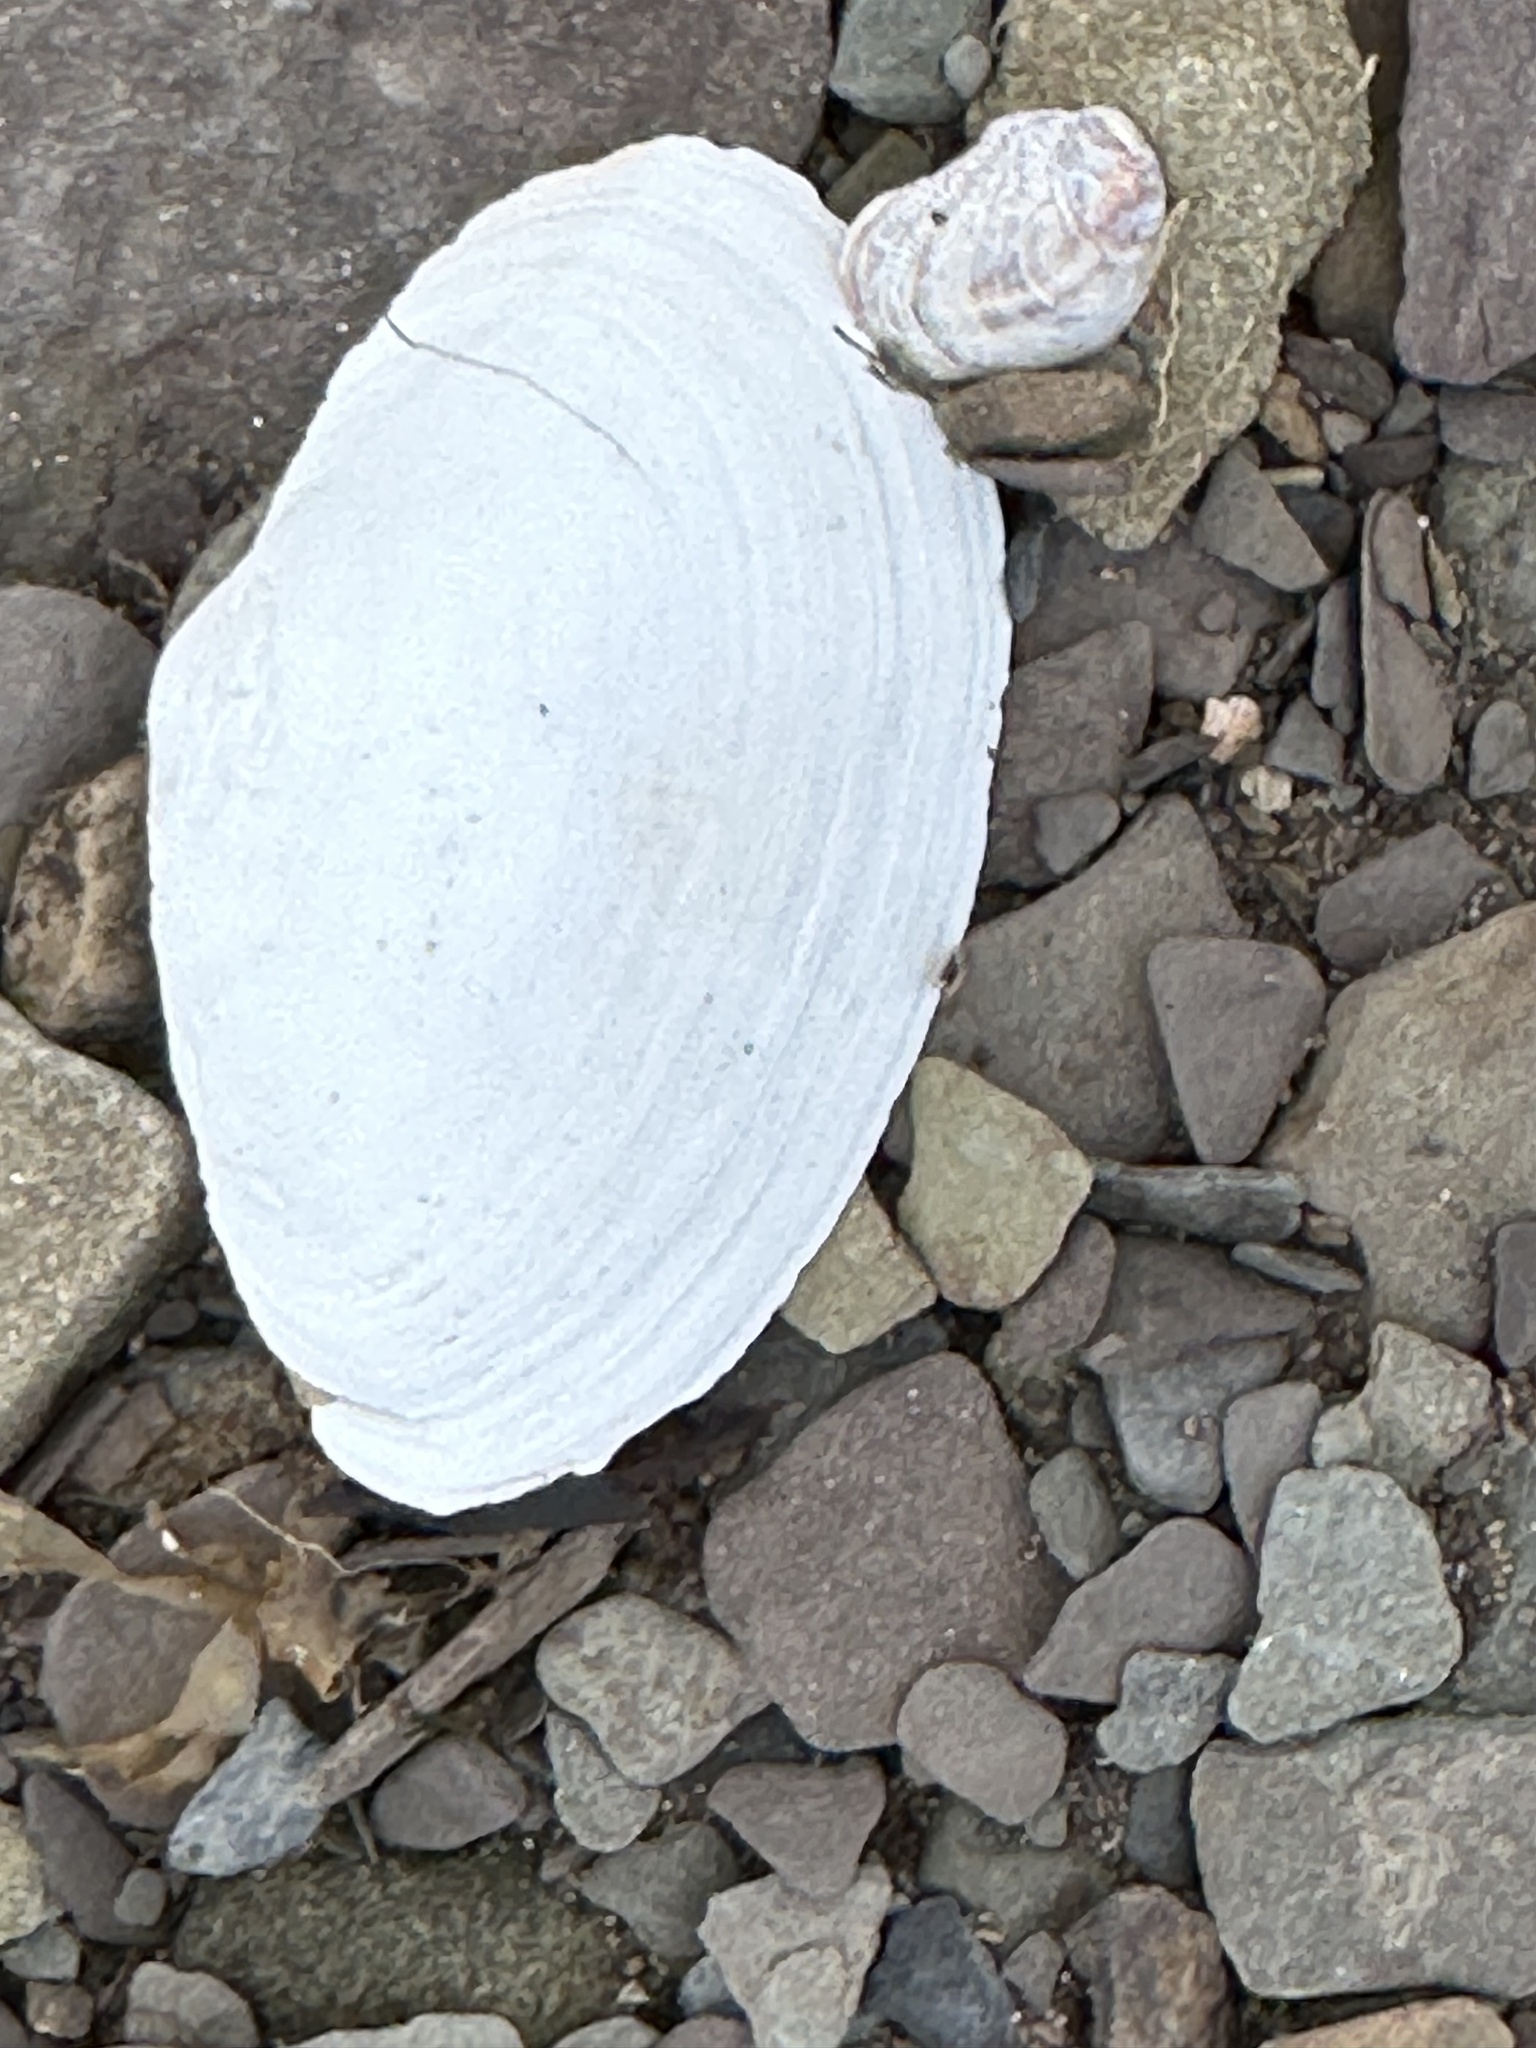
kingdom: Animalia
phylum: Mollusca
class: Bivalvia
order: Myida
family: Myidae
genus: Mya
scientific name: Mya arenaria
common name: Soft-shelled clam
